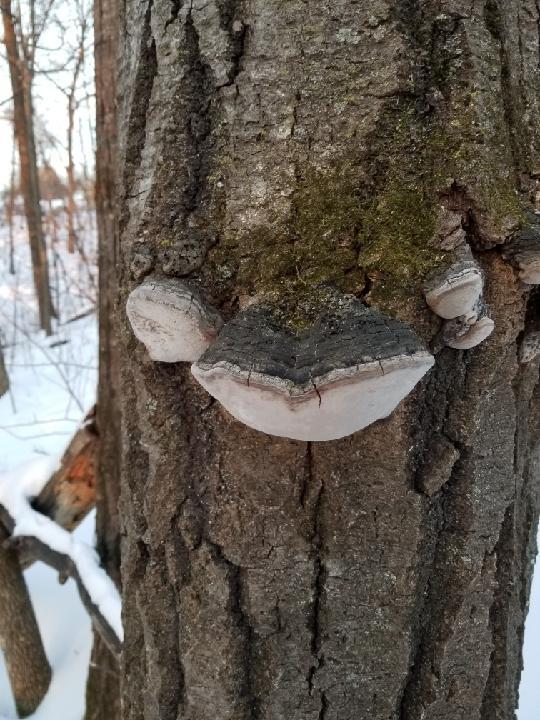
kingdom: Fungi
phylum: Basidiomycota
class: Agaricomycetes
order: Hymenochaetales
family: Hymenochaetaceae
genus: Phellinus
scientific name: Phellinus tremulae
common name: Aspen bracket
